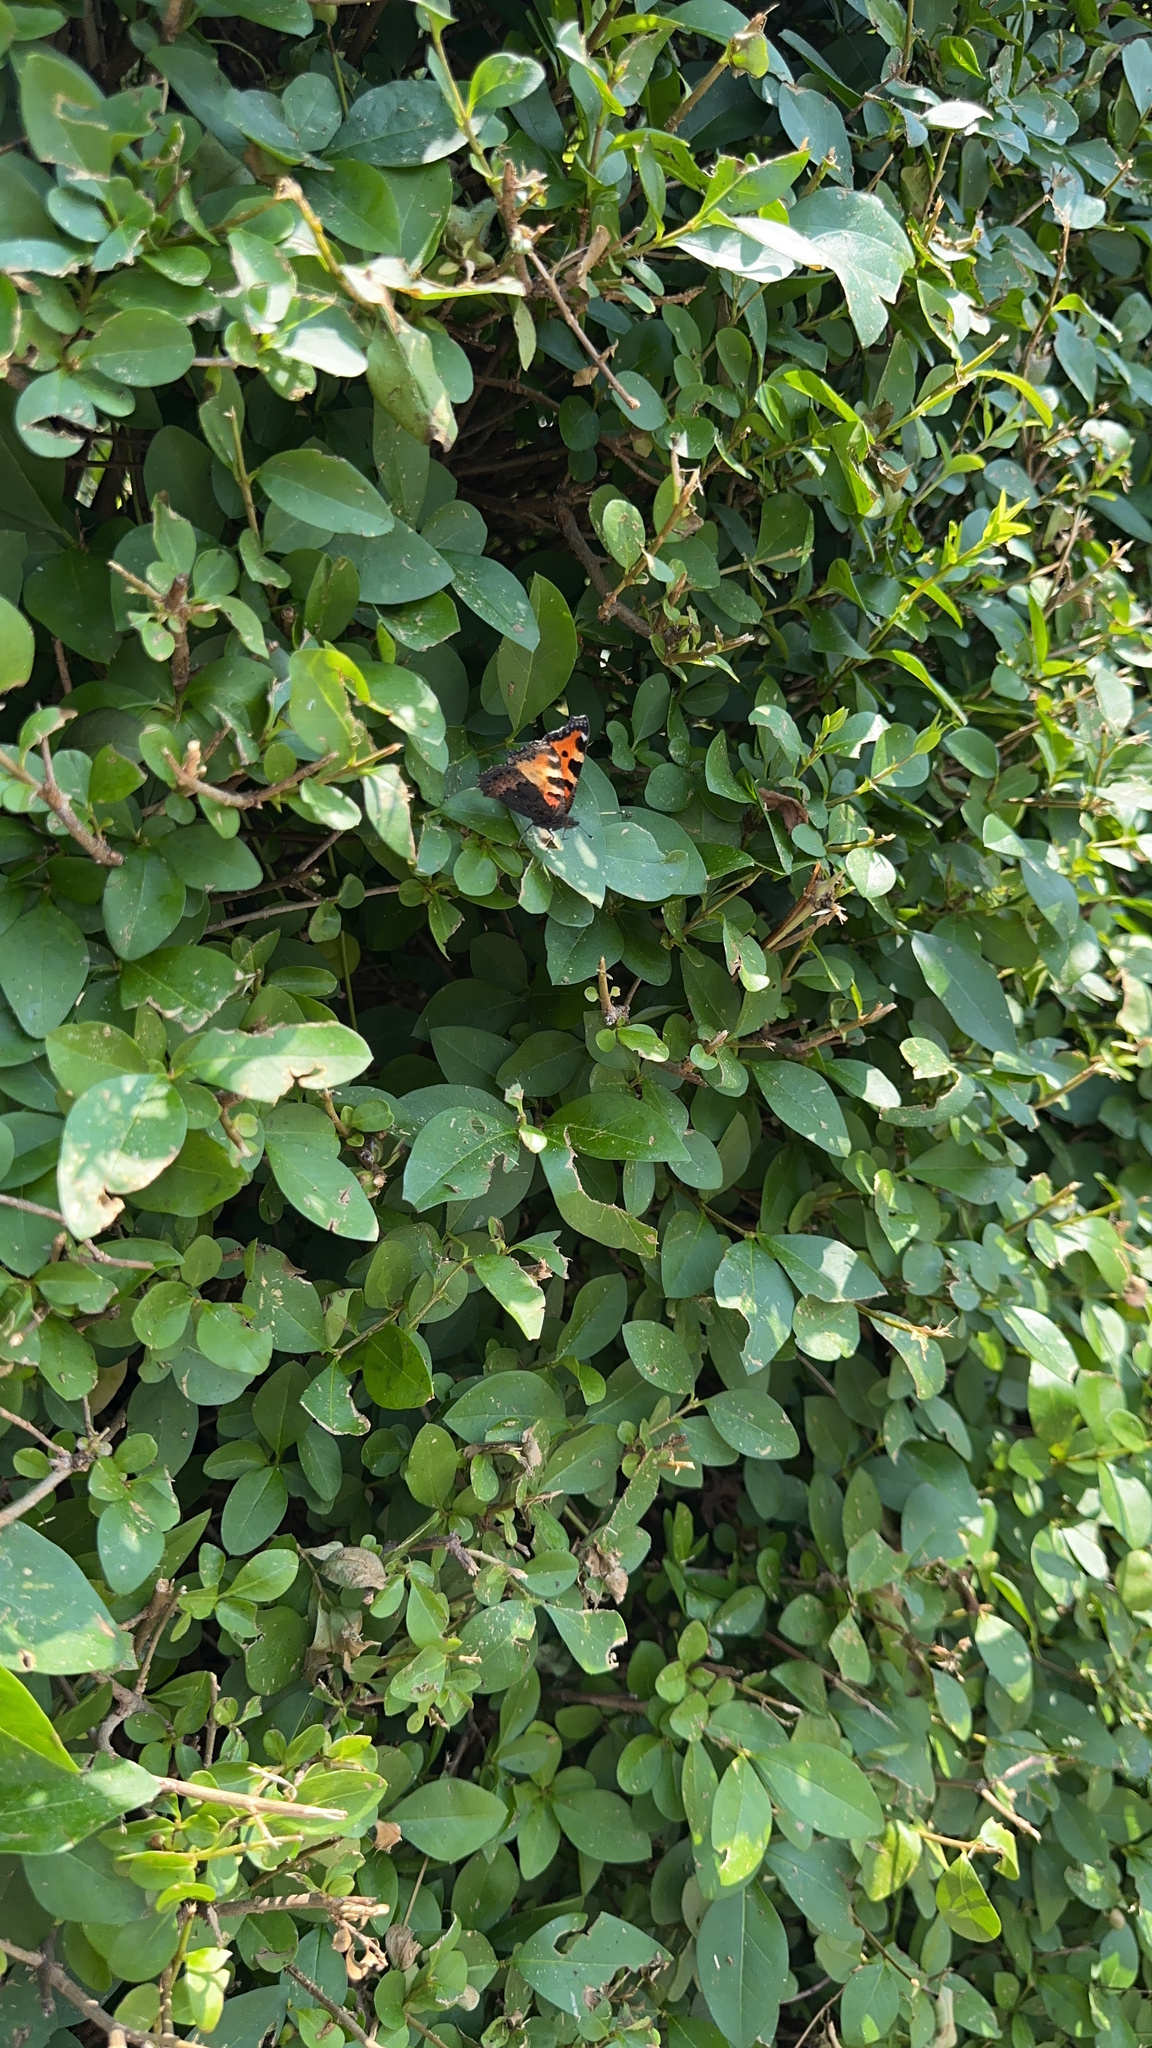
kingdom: Animalia
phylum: Arthropoda
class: Insecta
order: Lepidoptera
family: Nymphalidae
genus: Aglais
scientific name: Aglais urticae
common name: Small tortoiseshell
